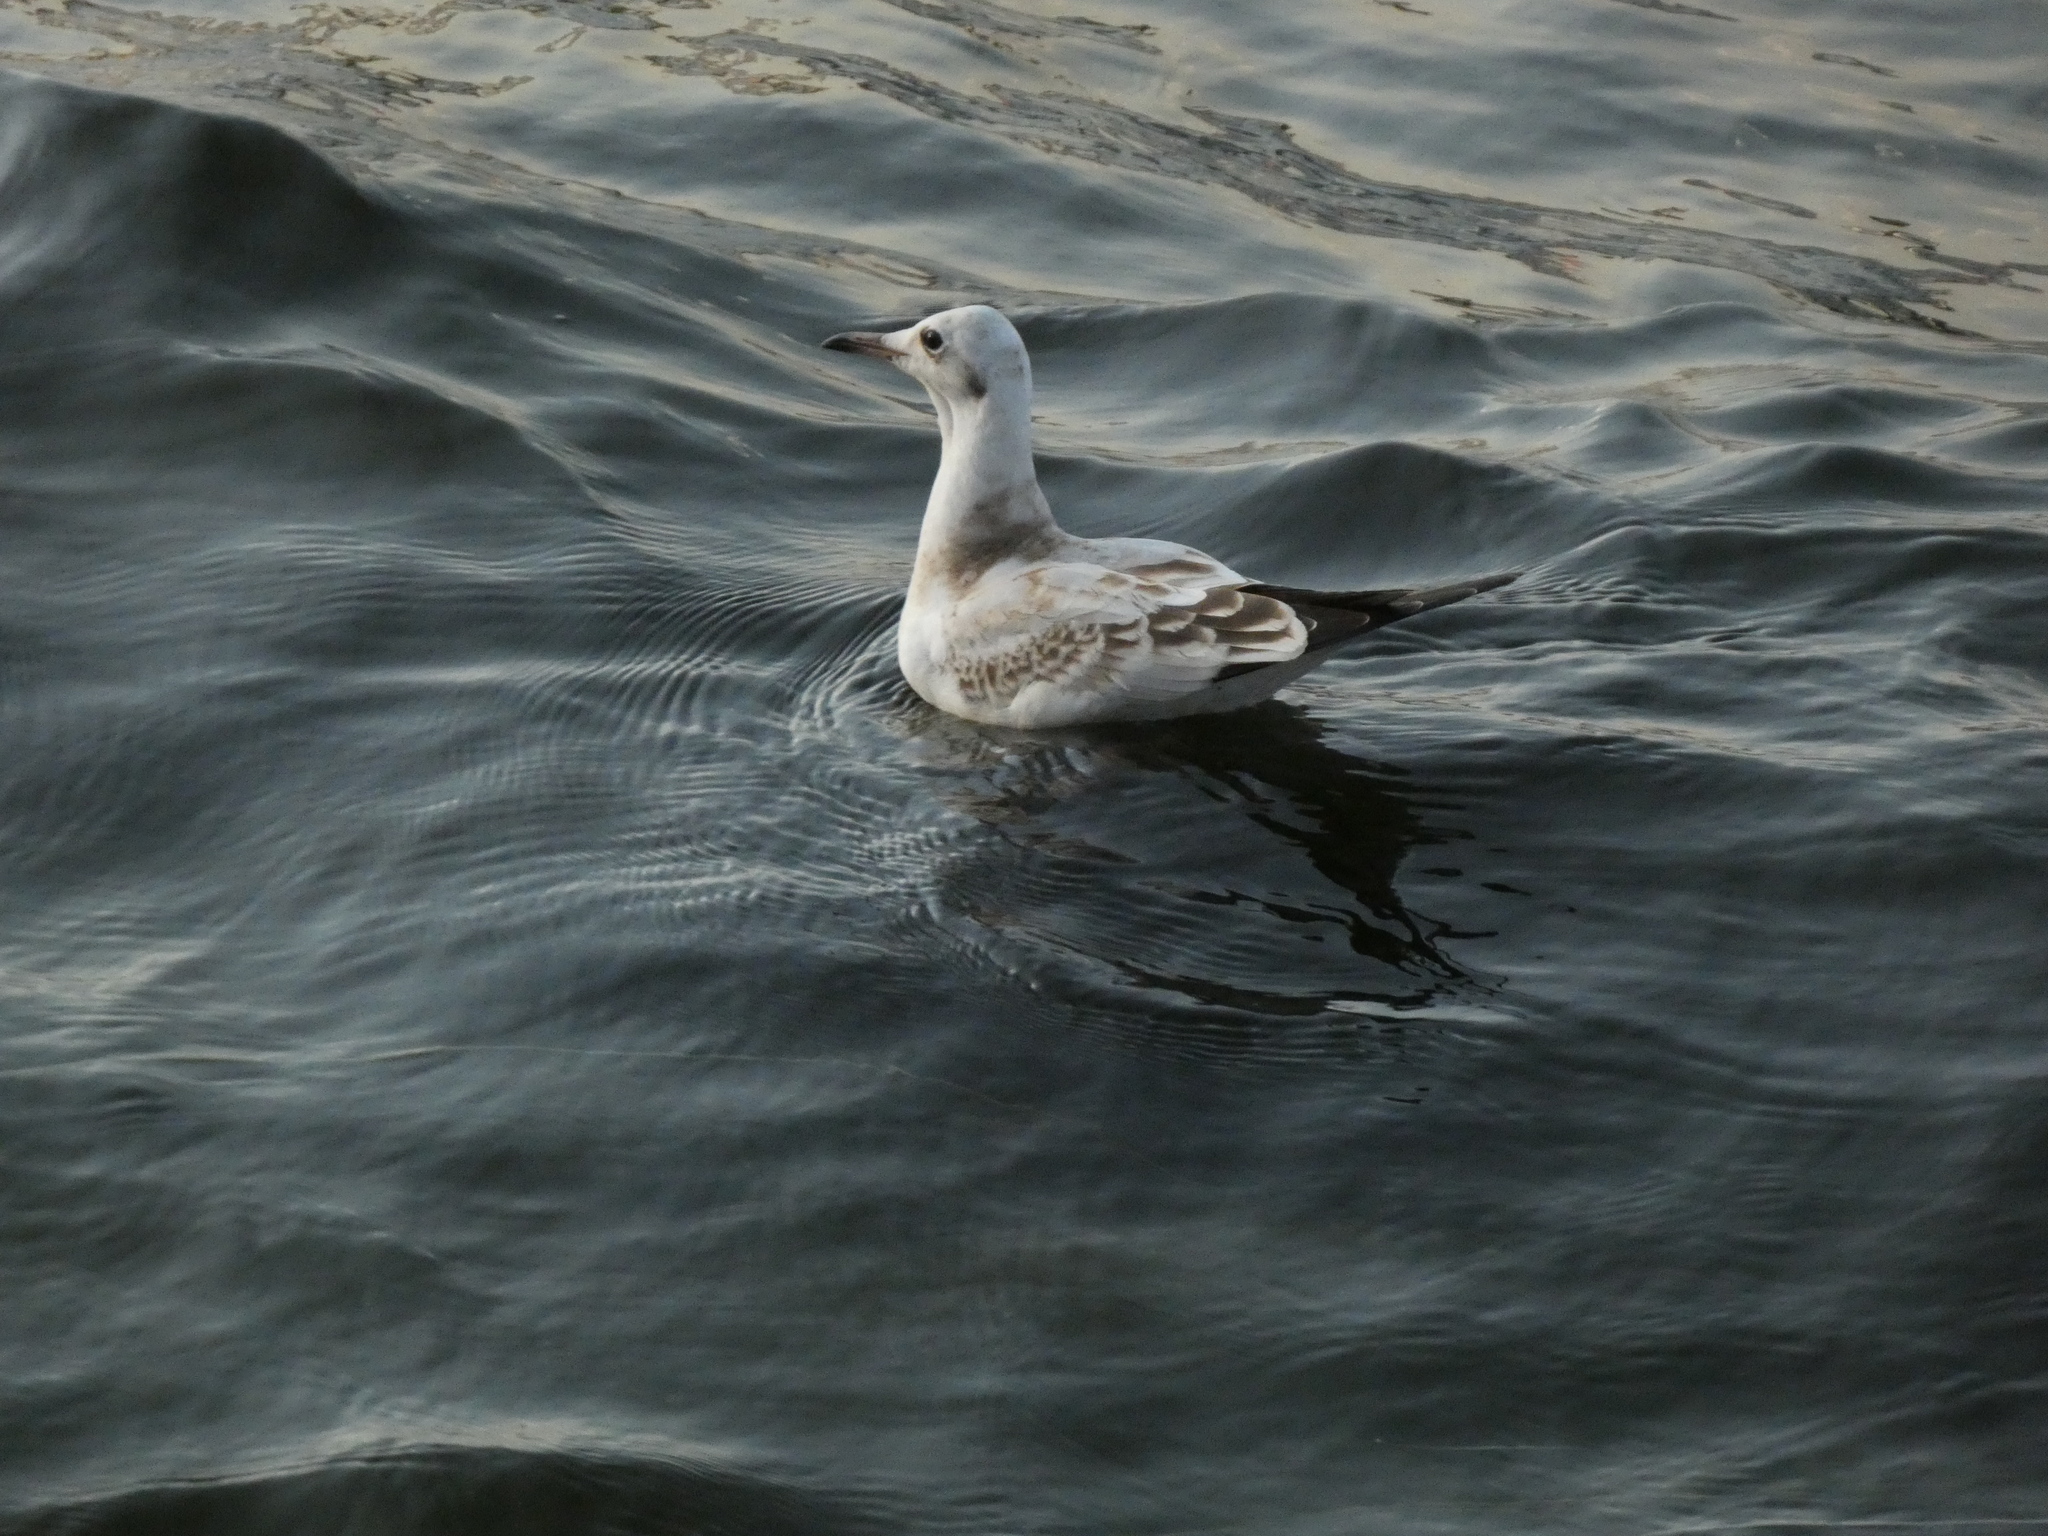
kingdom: Animalia
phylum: Chordata
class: Aves
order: Charadriiformes
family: Laridae
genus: Chroicocephalus
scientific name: Chroicocephalus ridibundus
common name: Black-headed gull
